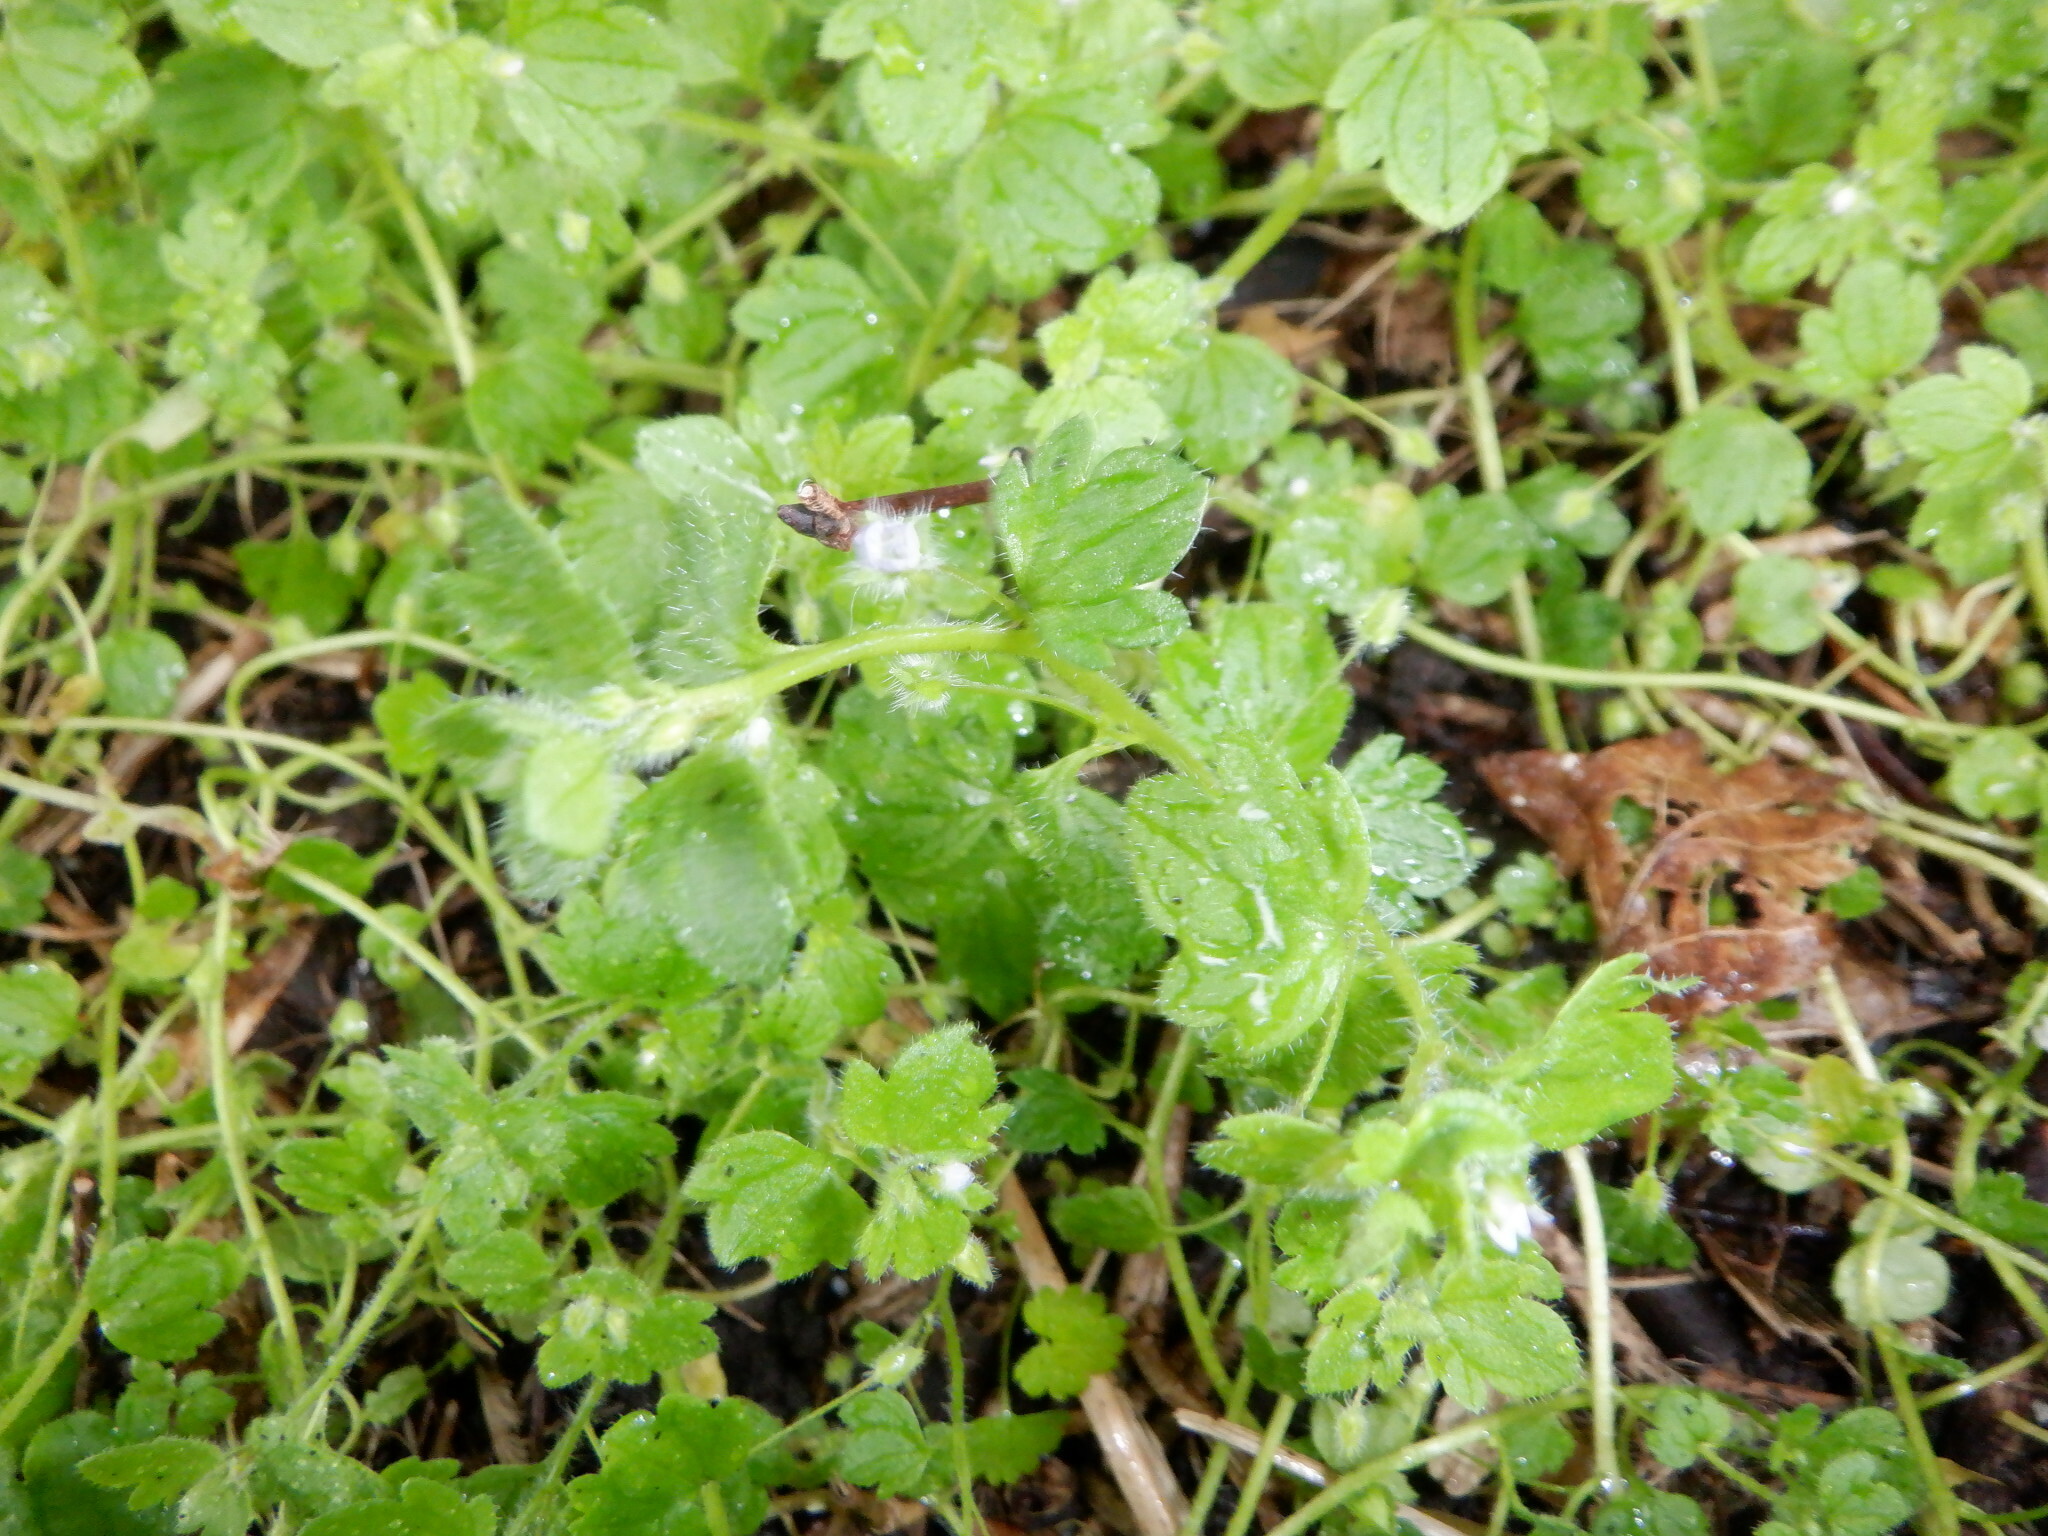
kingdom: Plantae
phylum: Tracheophyta
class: Magnoliopsida
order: Lamiales
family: Plantaginaceae
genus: Veronica
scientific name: Veronica sublobata
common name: False ivy-leaved speedwell
